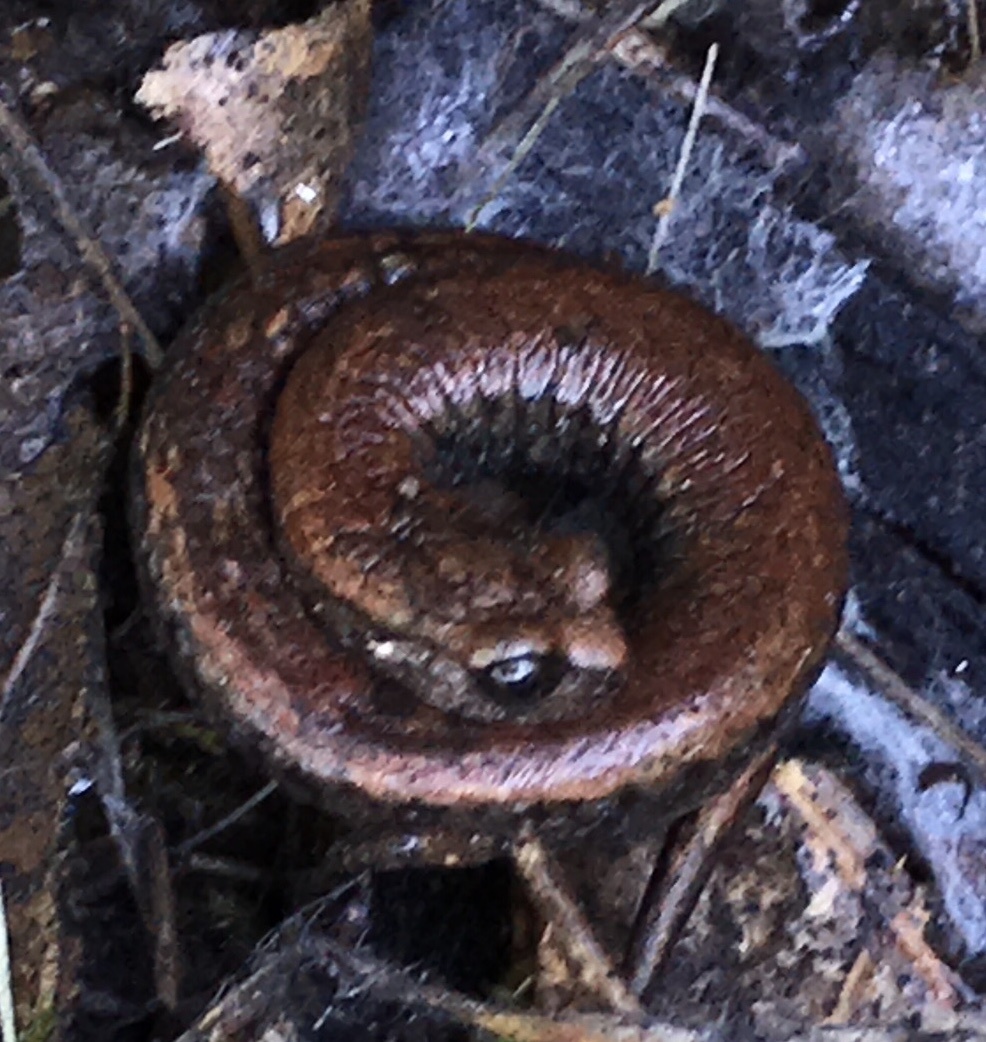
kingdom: Animalia
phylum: Chordata
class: Amphibia
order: Caudata
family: Plethodontidae
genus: Batrachoseps
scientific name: Batrachoseps attenuatus
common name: California slender salamander
